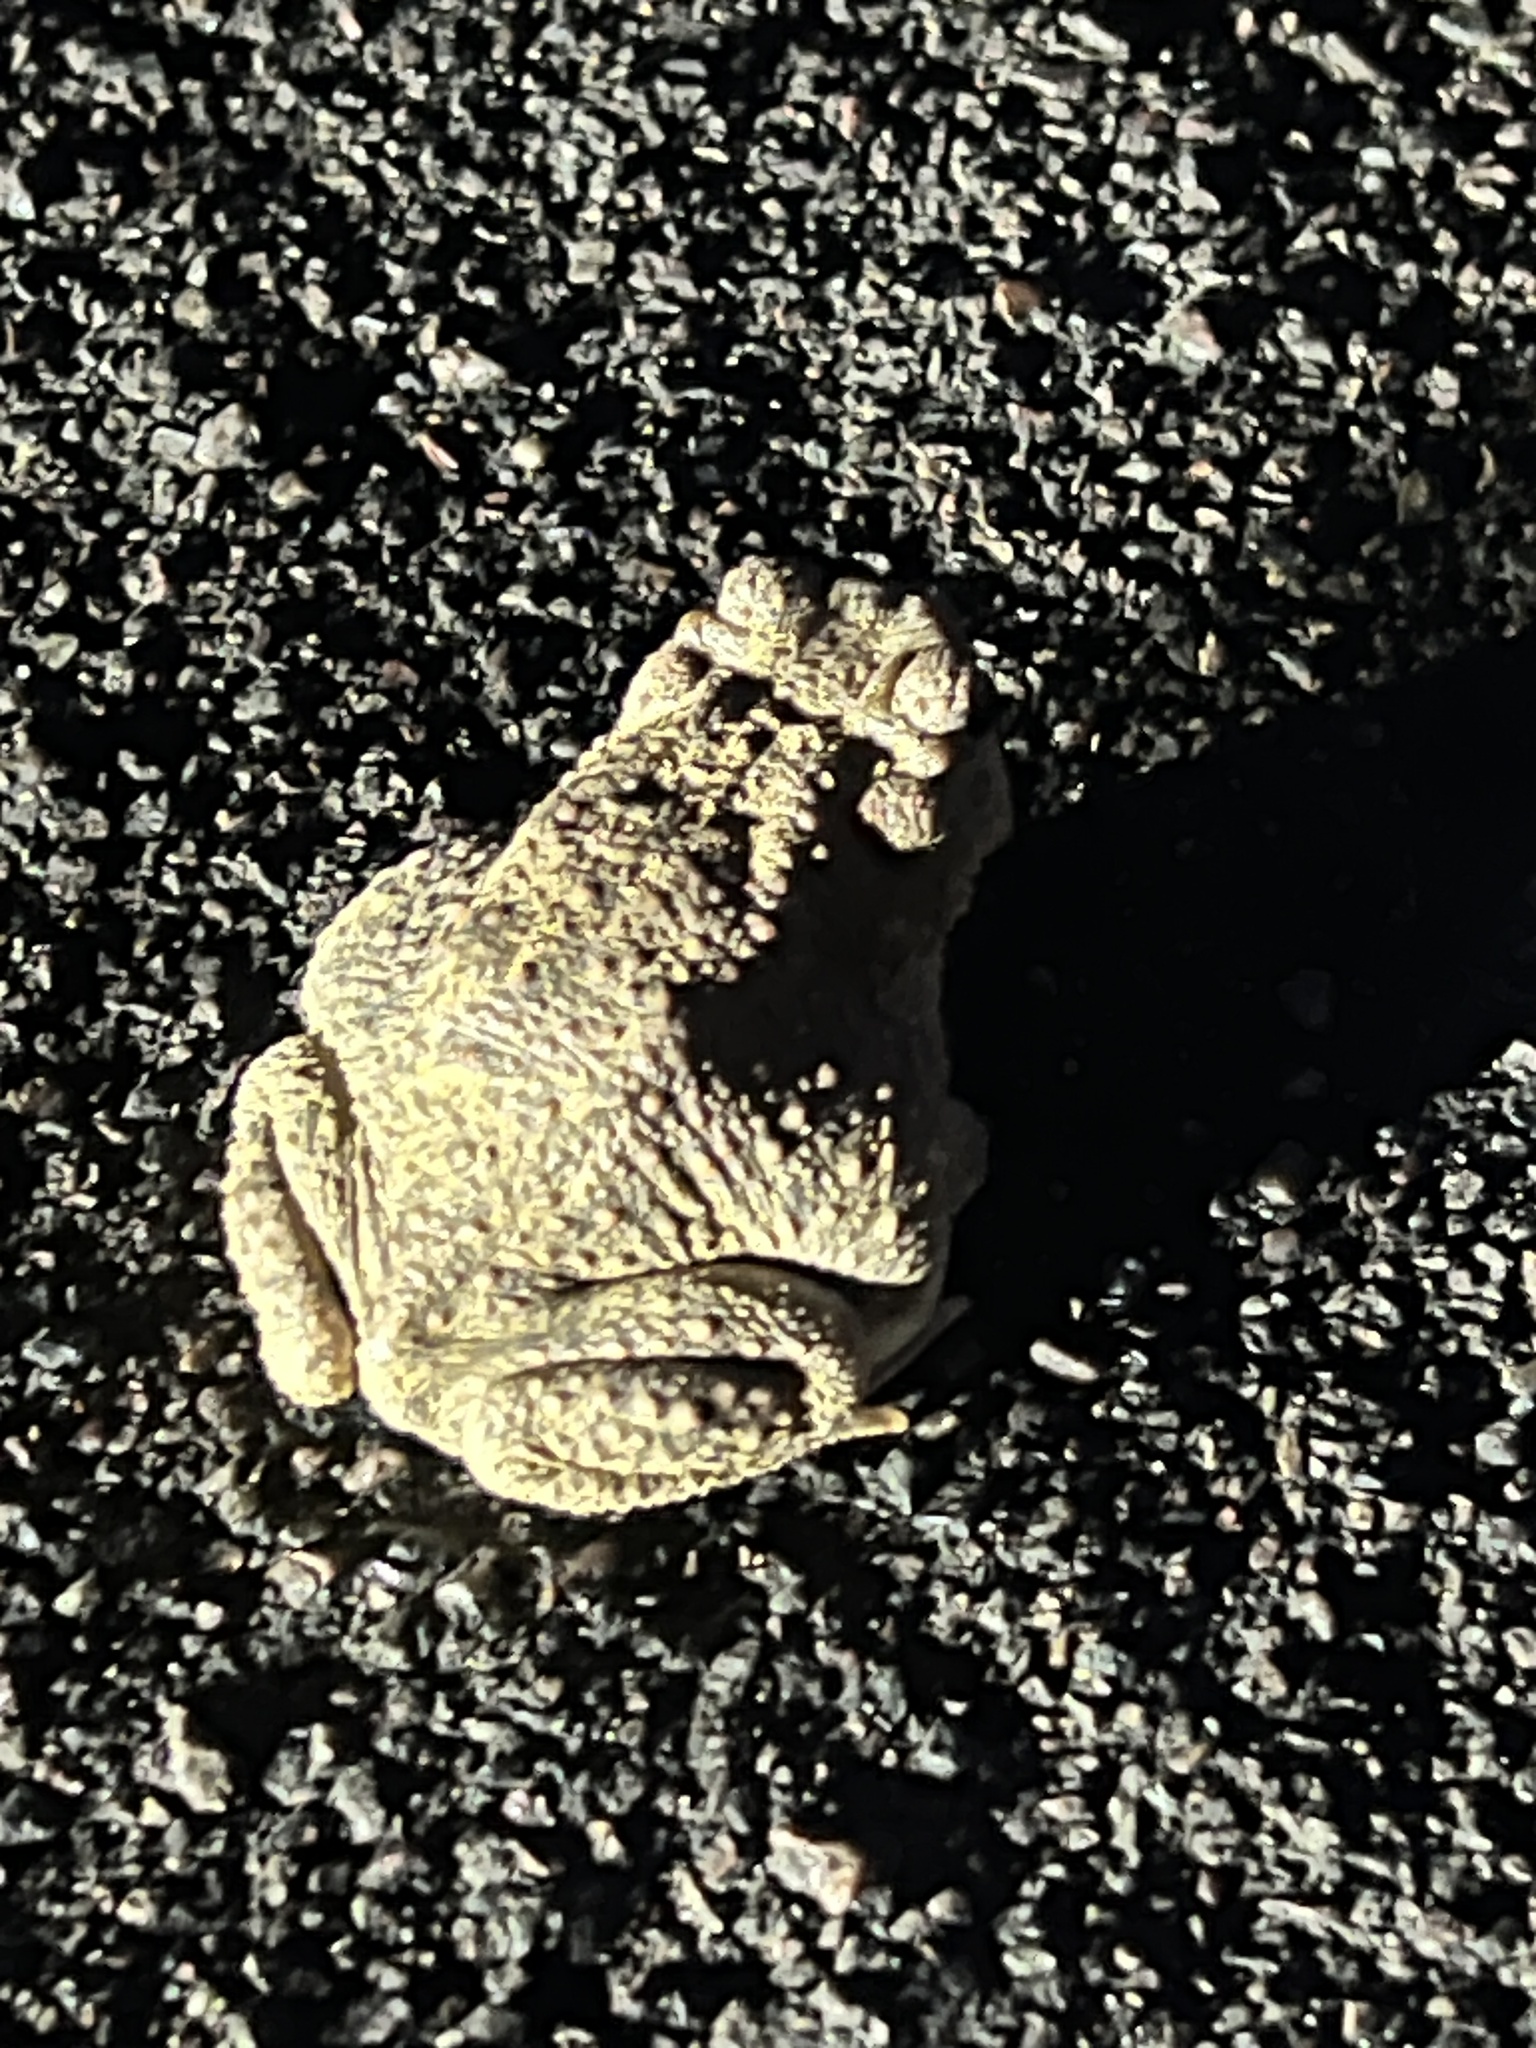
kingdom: Animalia
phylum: Chordata
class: Amphibia
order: Anura
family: Bufonidae
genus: Anaxyrus
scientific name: Anaxyrus punctatus
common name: Red-spotted toad
